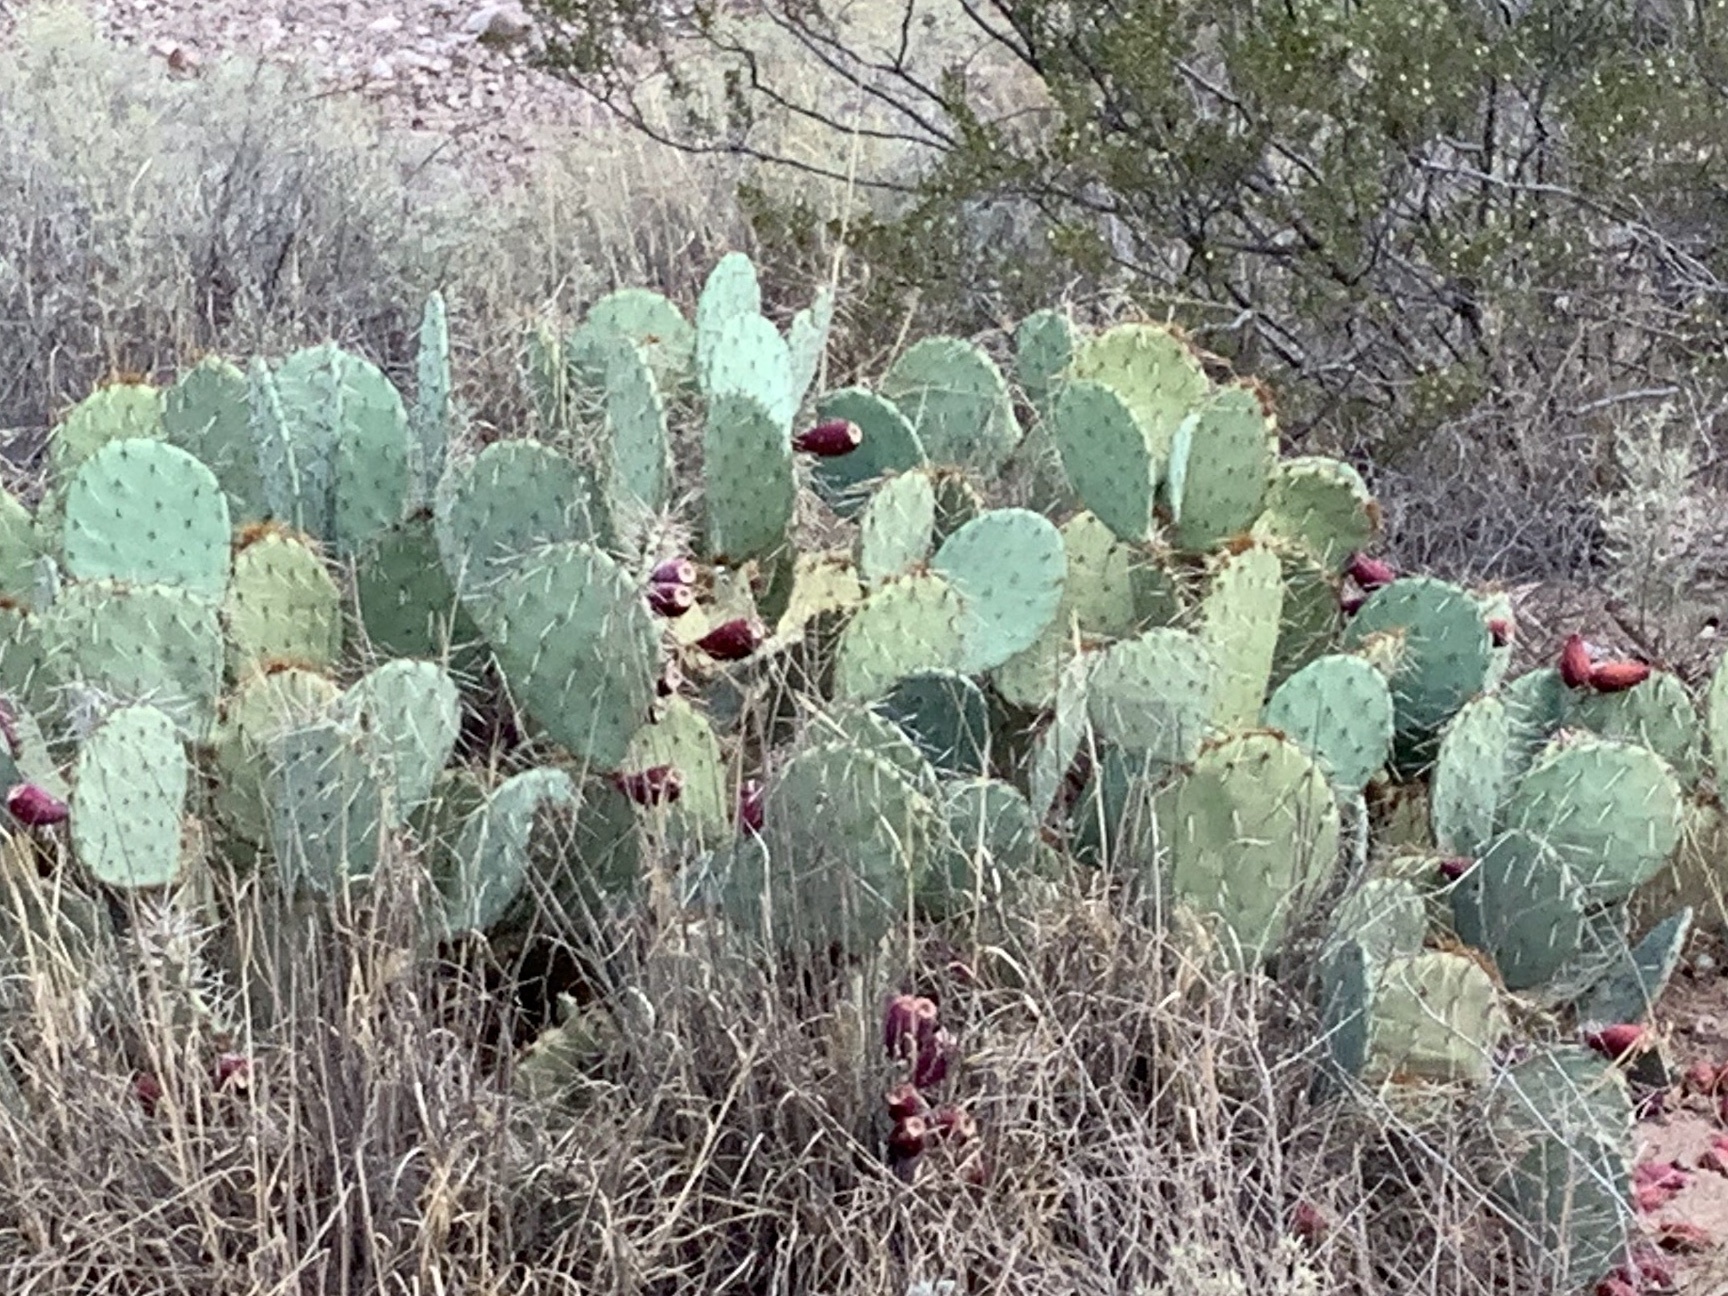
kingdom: Plantae
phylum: Tracheophyta
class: Magnoliopsida
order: Caryophyllales
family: Cactaceae
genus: Opuntia
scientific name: Opuntia engelmannii
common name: Cactus-apple
